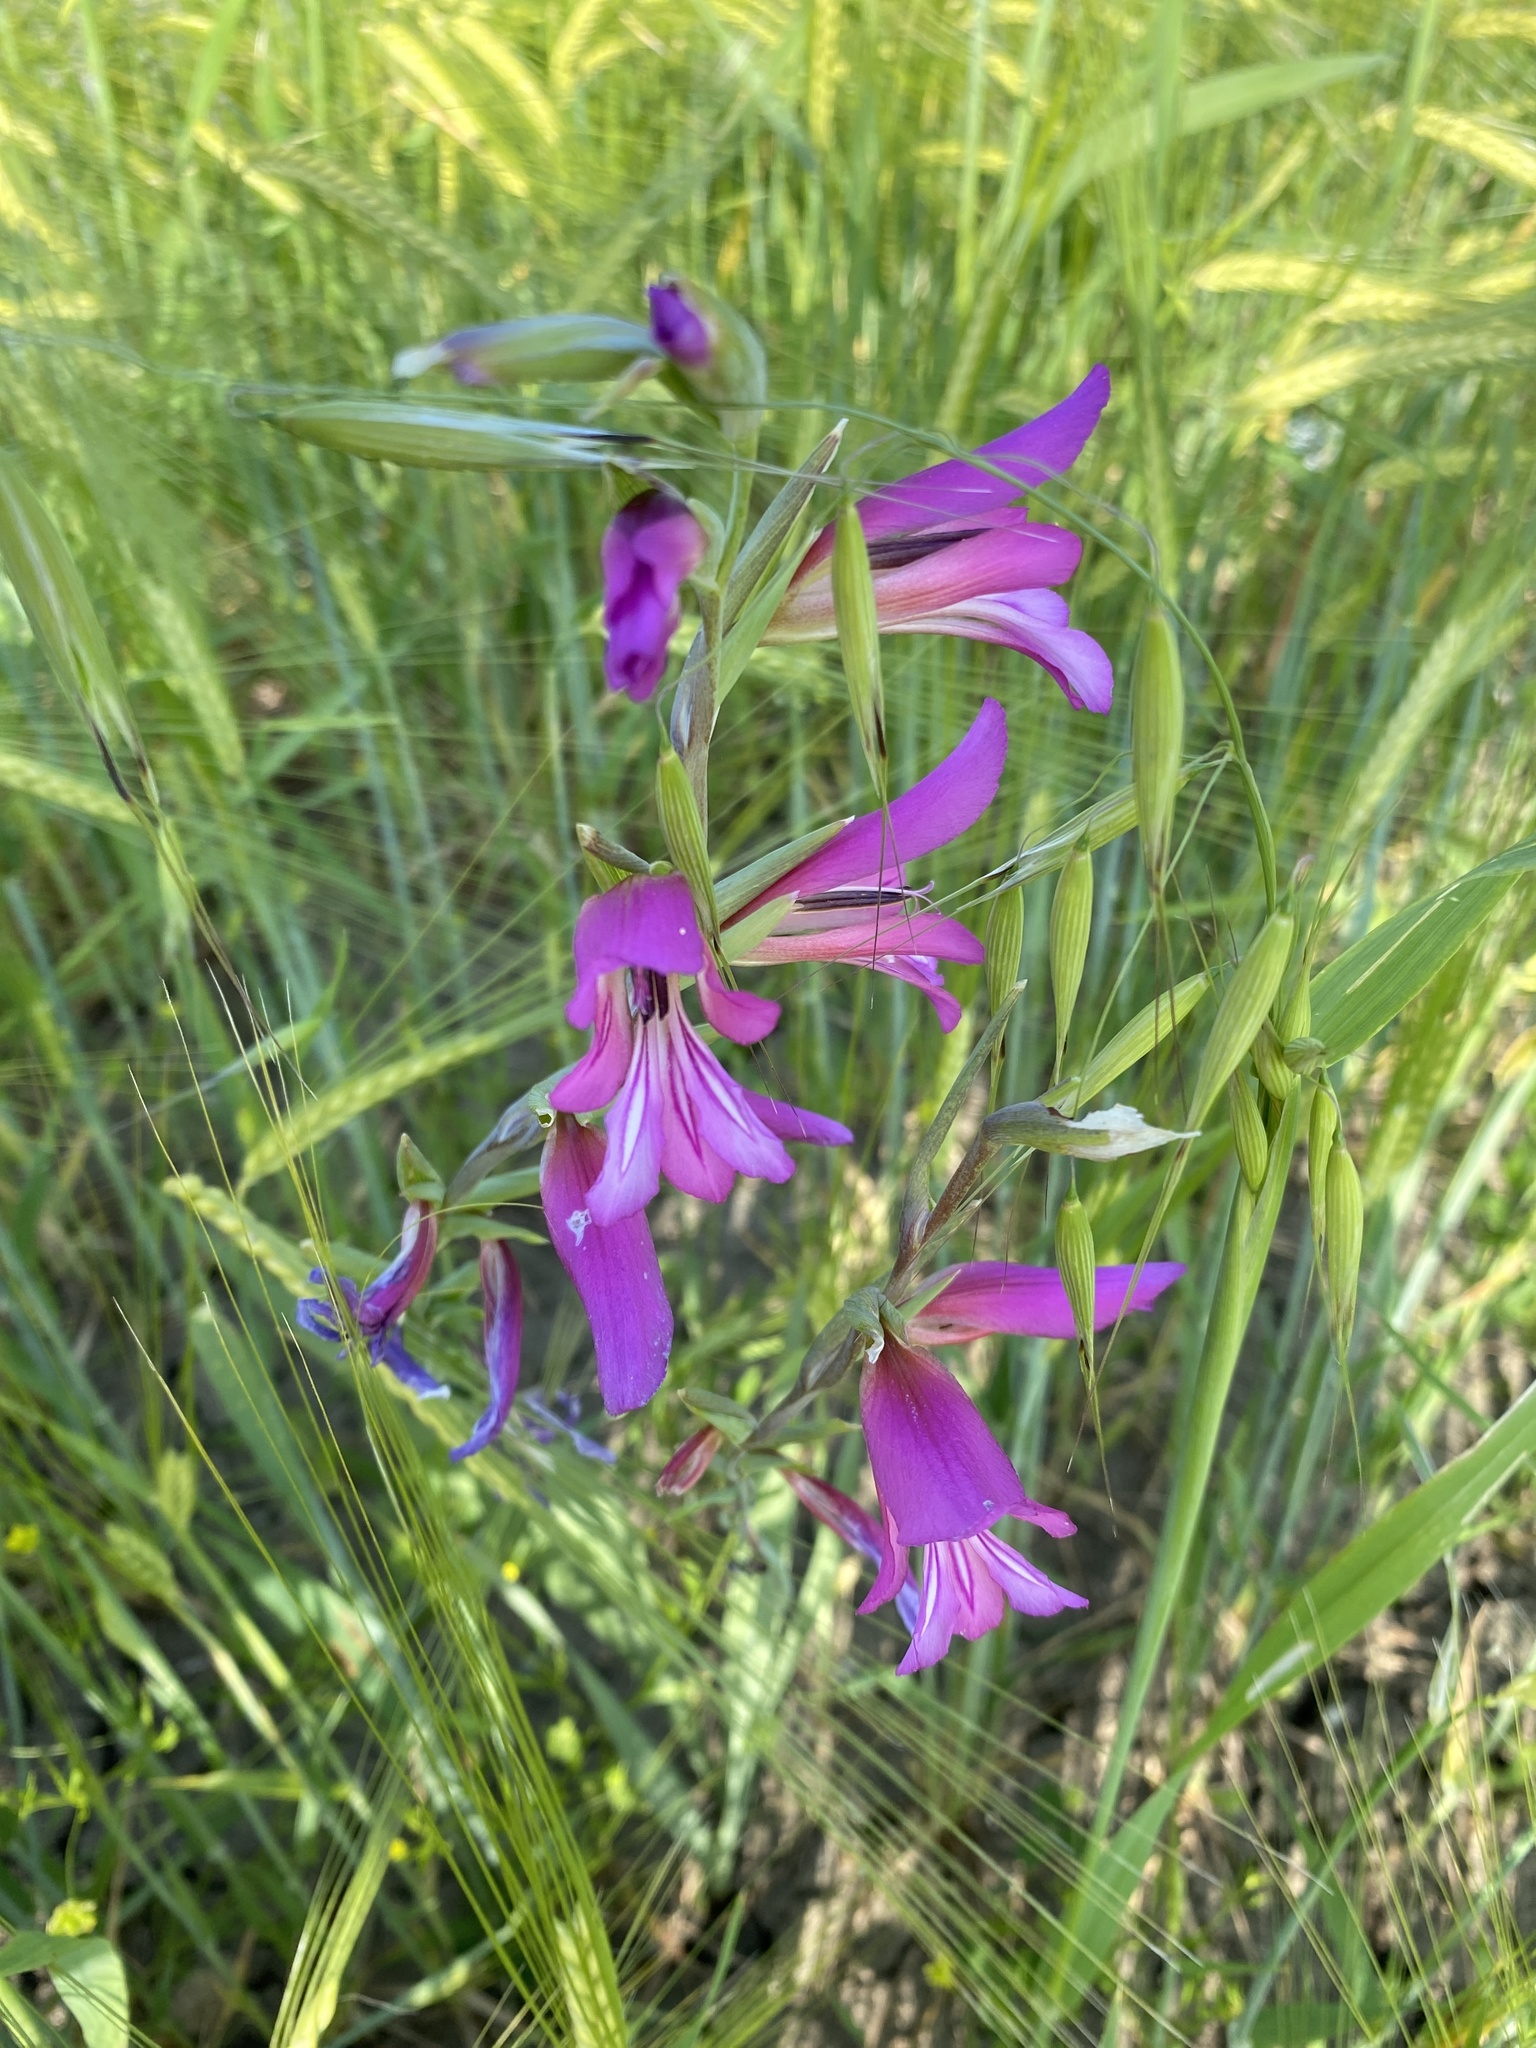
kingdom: Plantae
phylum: Tracheophyta
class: Liliopsida
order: Asparagales
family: Iridaceae
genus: Gladiolus
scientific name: Gladiolus italicus
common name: Field gladiolus
